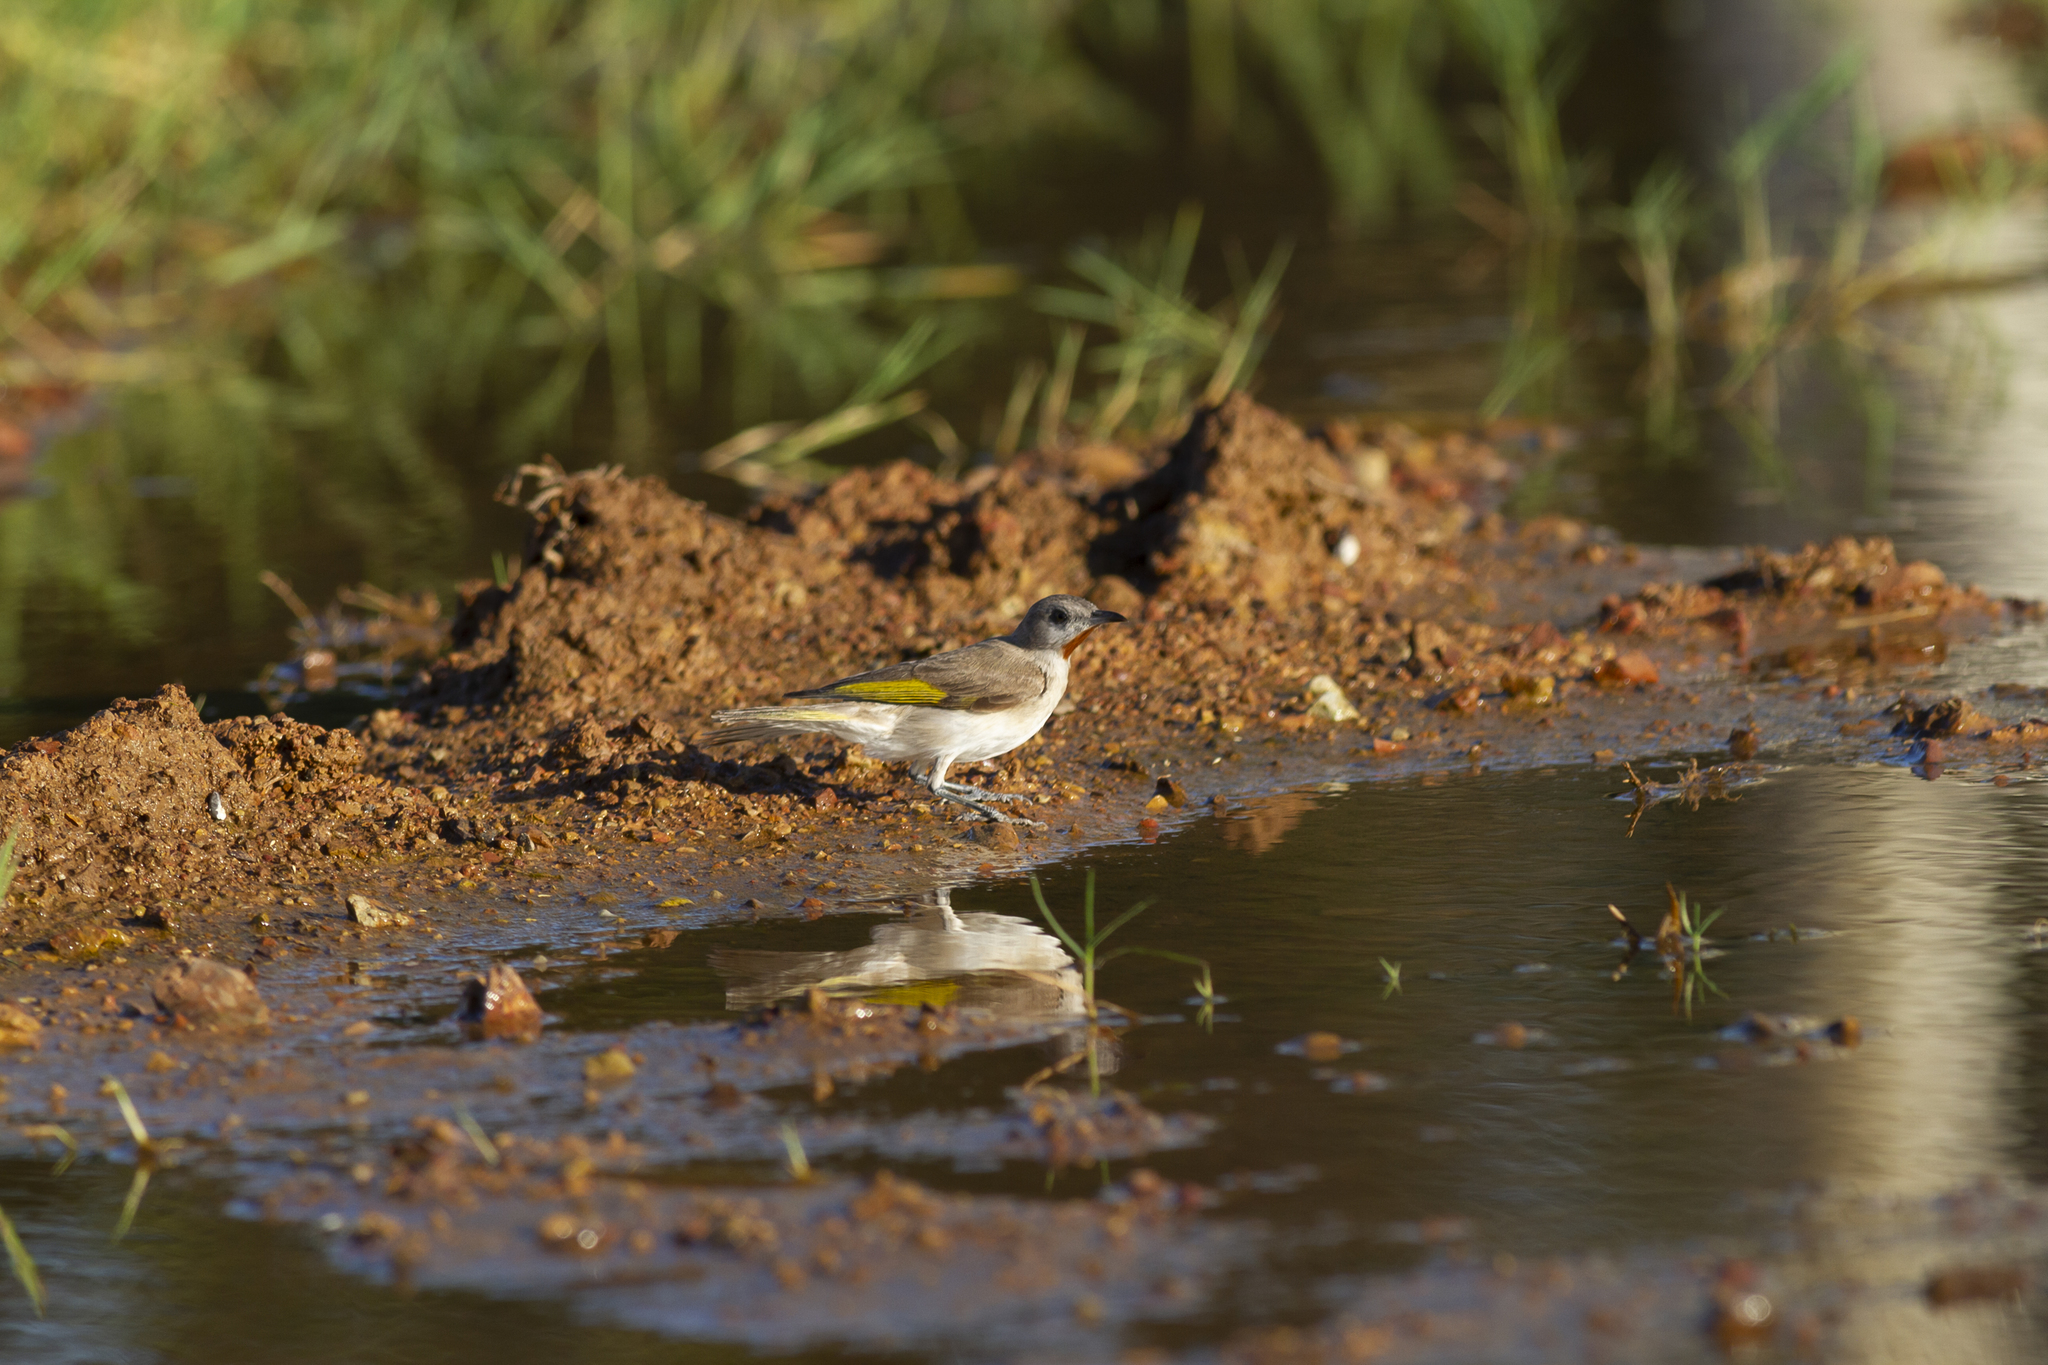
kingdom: Animalia
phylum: Chordata
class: Aves
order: Passeriformes
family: Meliphagidae
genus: Conopophila
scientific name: Conopophila rufogularis
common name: Rufous-throated honeyeater
